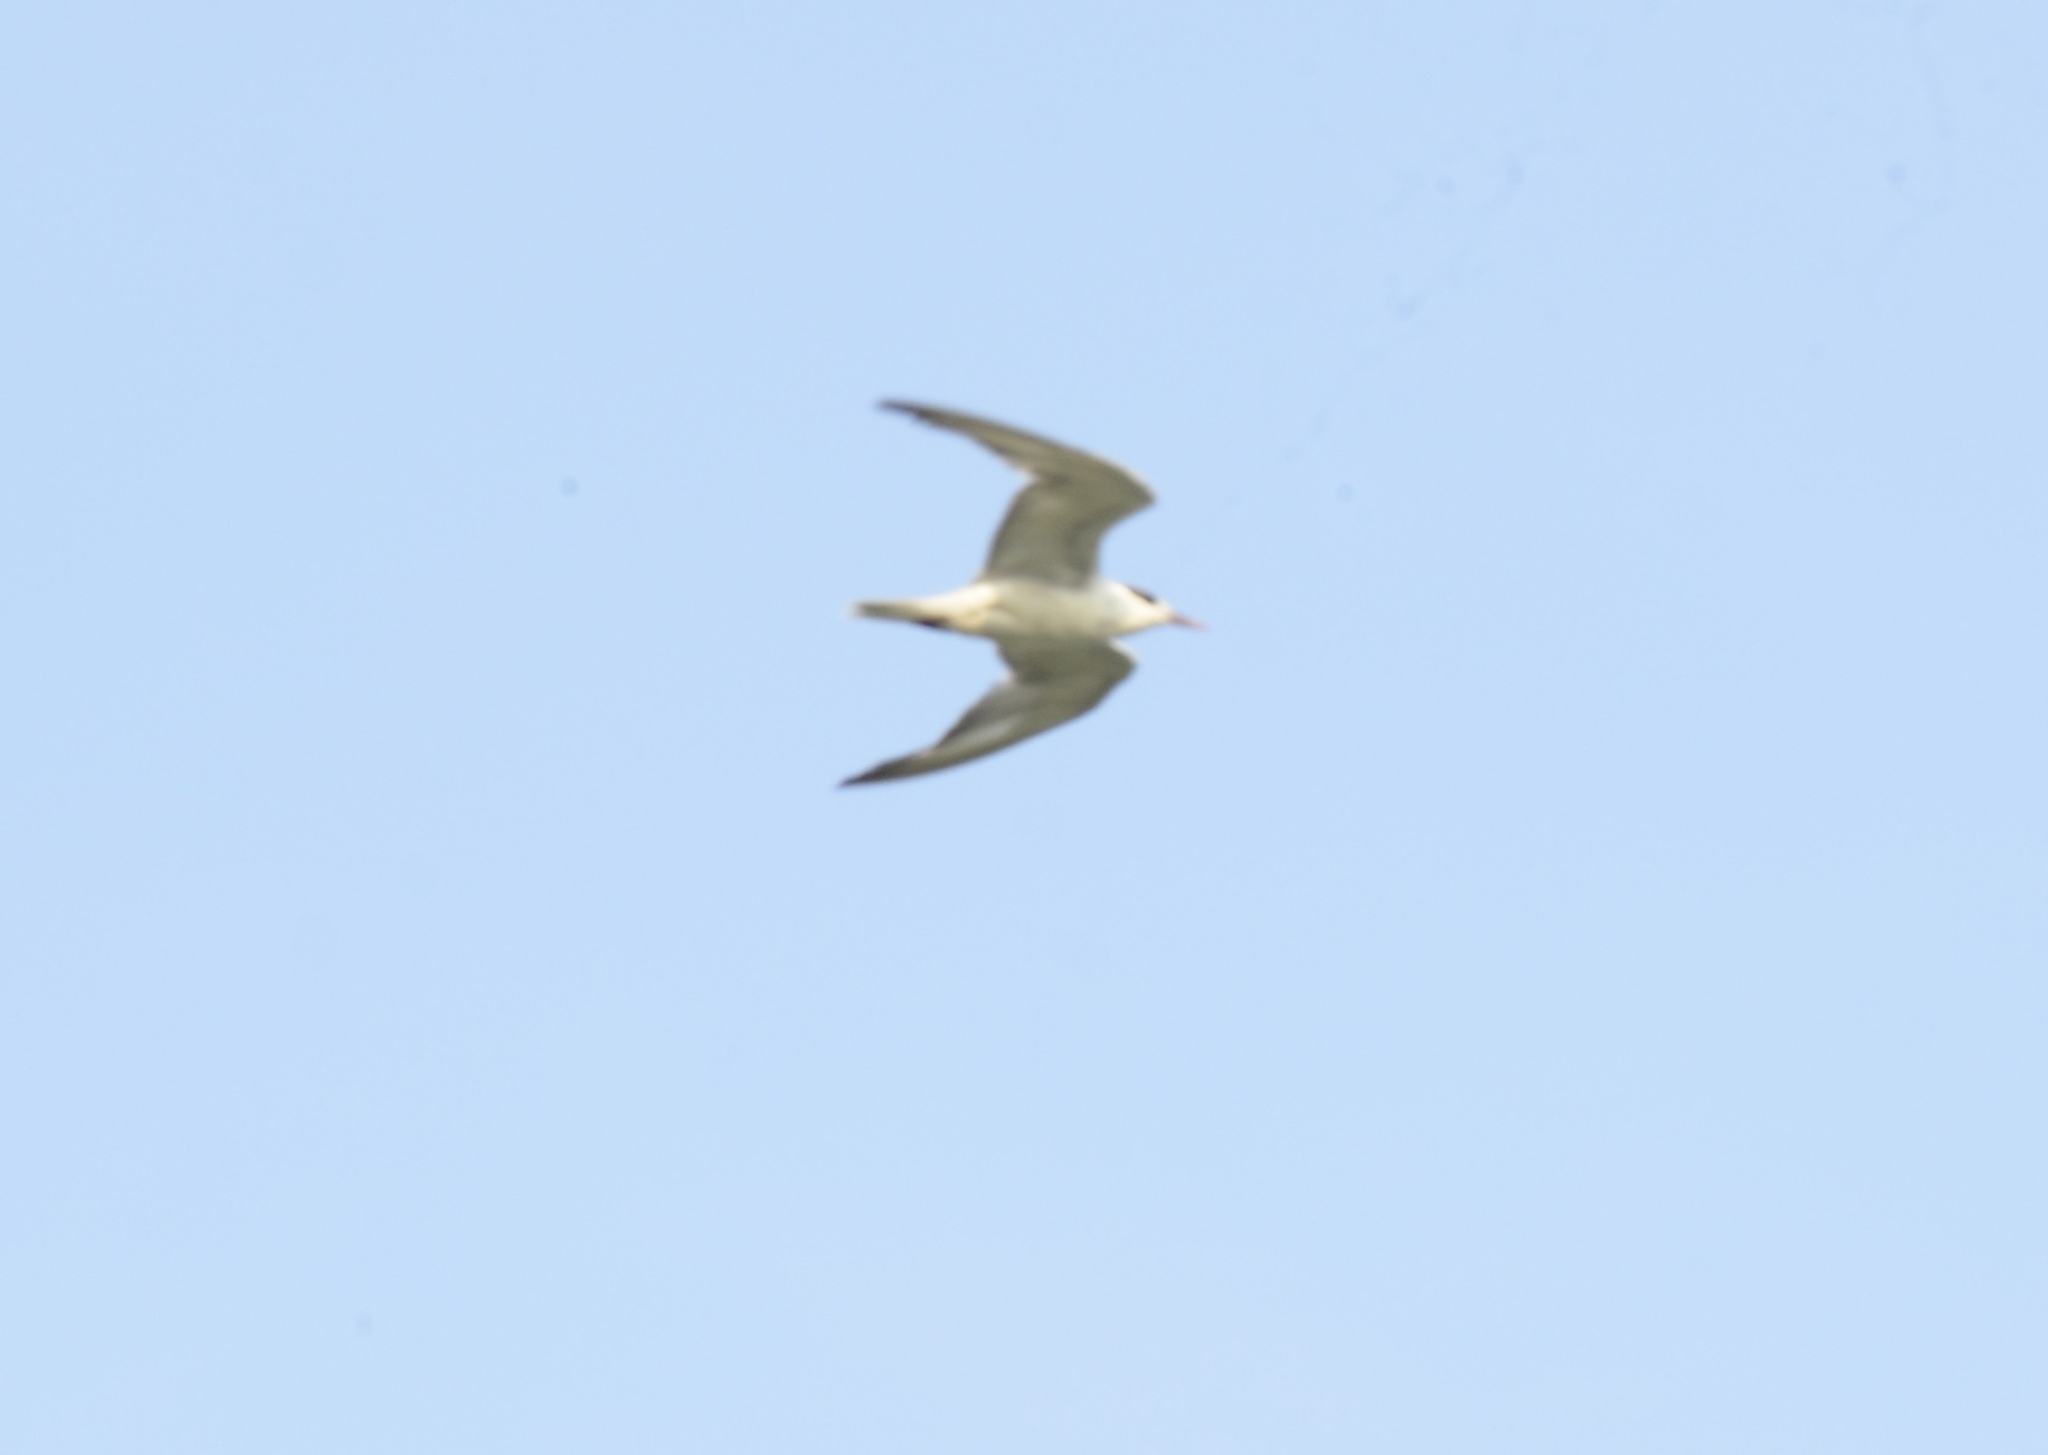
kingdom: Animalia
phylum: Chordata
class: Aves
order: Charadriiformes
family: Laridae
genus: Chlidonias
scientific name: Chlidonias hybrida
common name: Whiskered tern
